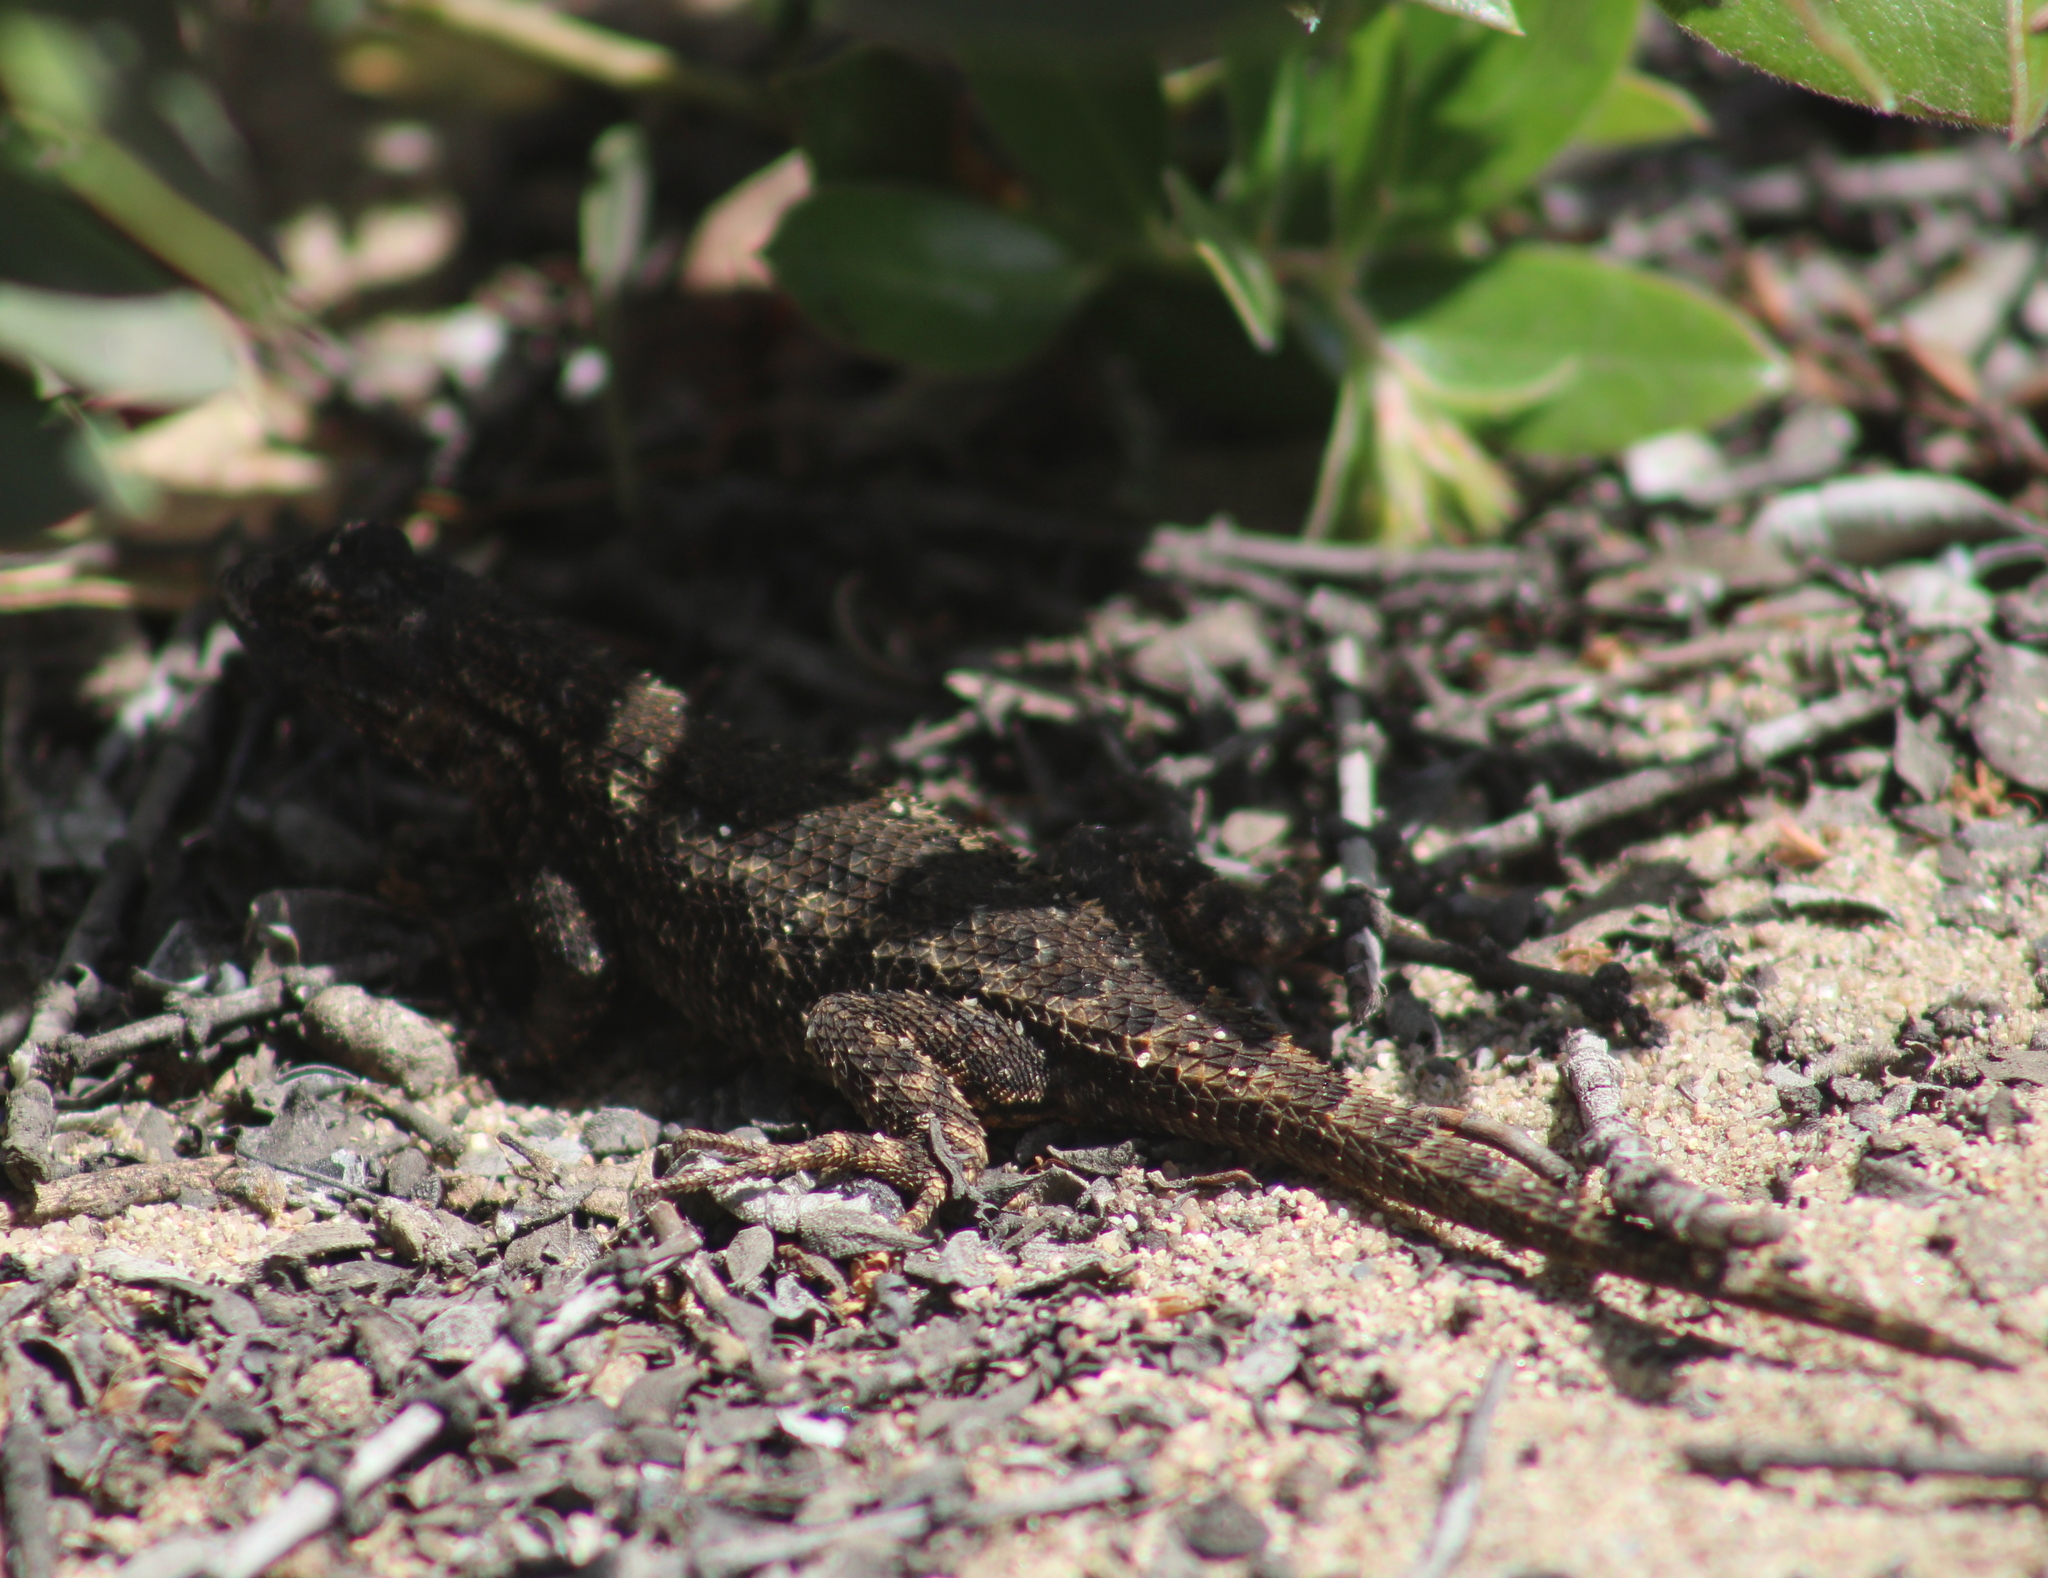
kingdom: Animalia
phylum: Chordata
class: Squamata
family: Phrynosomatidae
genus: Sceloporus
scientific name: Sceloporus occidentalis
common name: Western fence lizard
